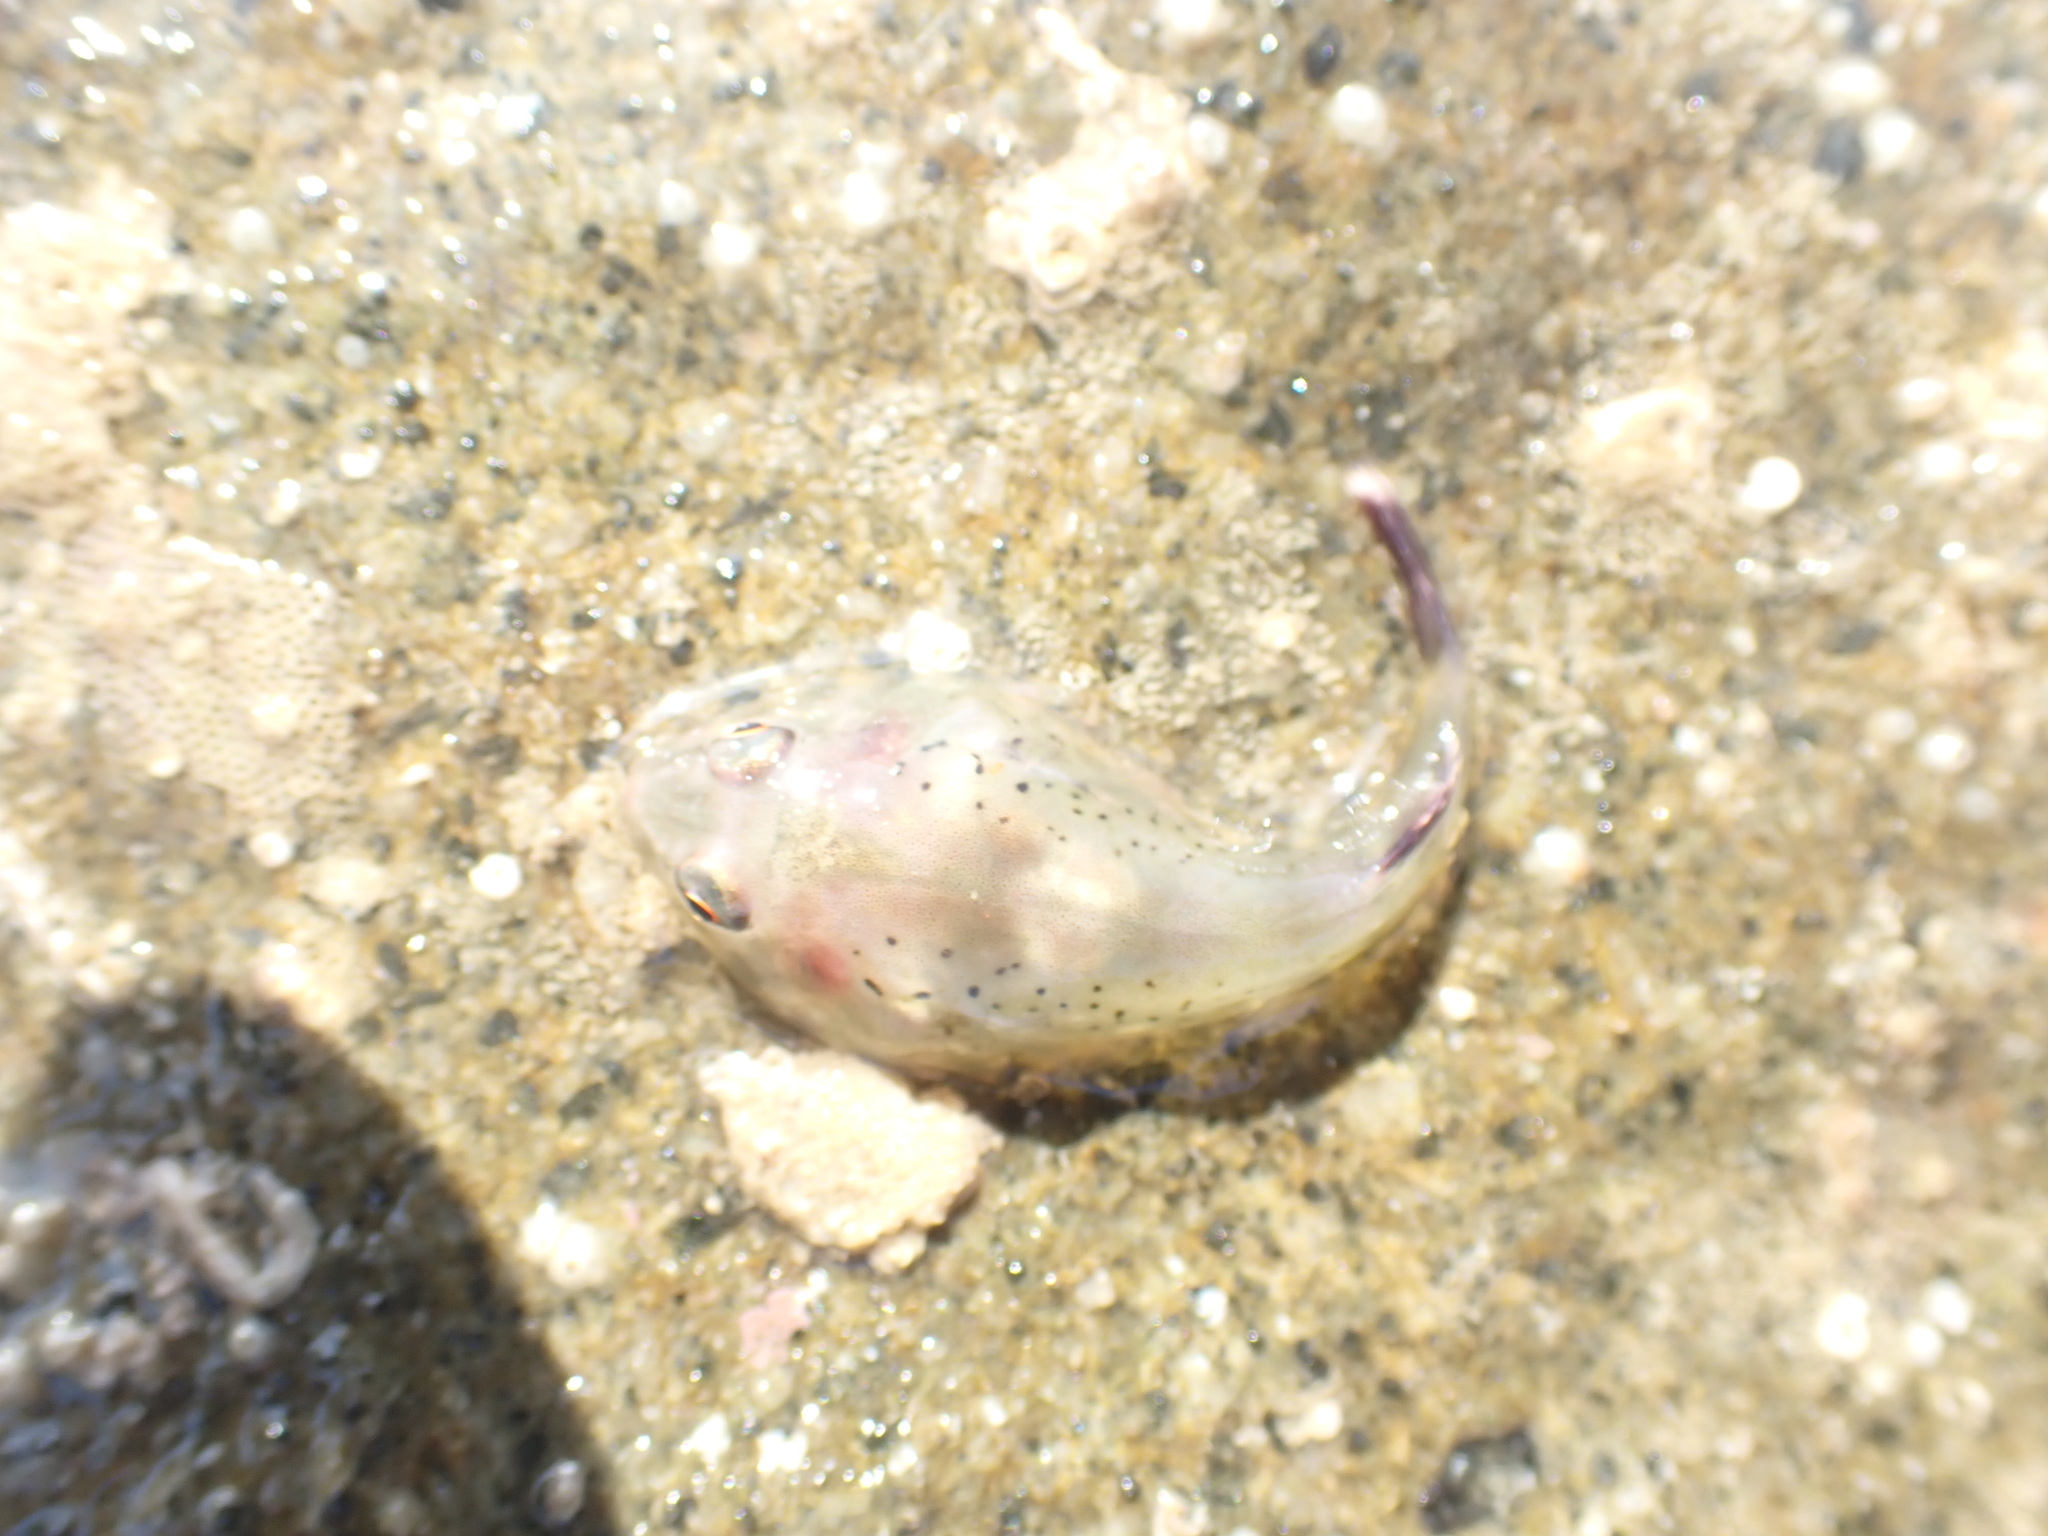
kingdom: Animalia
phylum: Chordata
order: Gobiesociformes
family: Gobiesocidae
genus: Diplocrepis
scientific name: Diplocrepis puniceus
